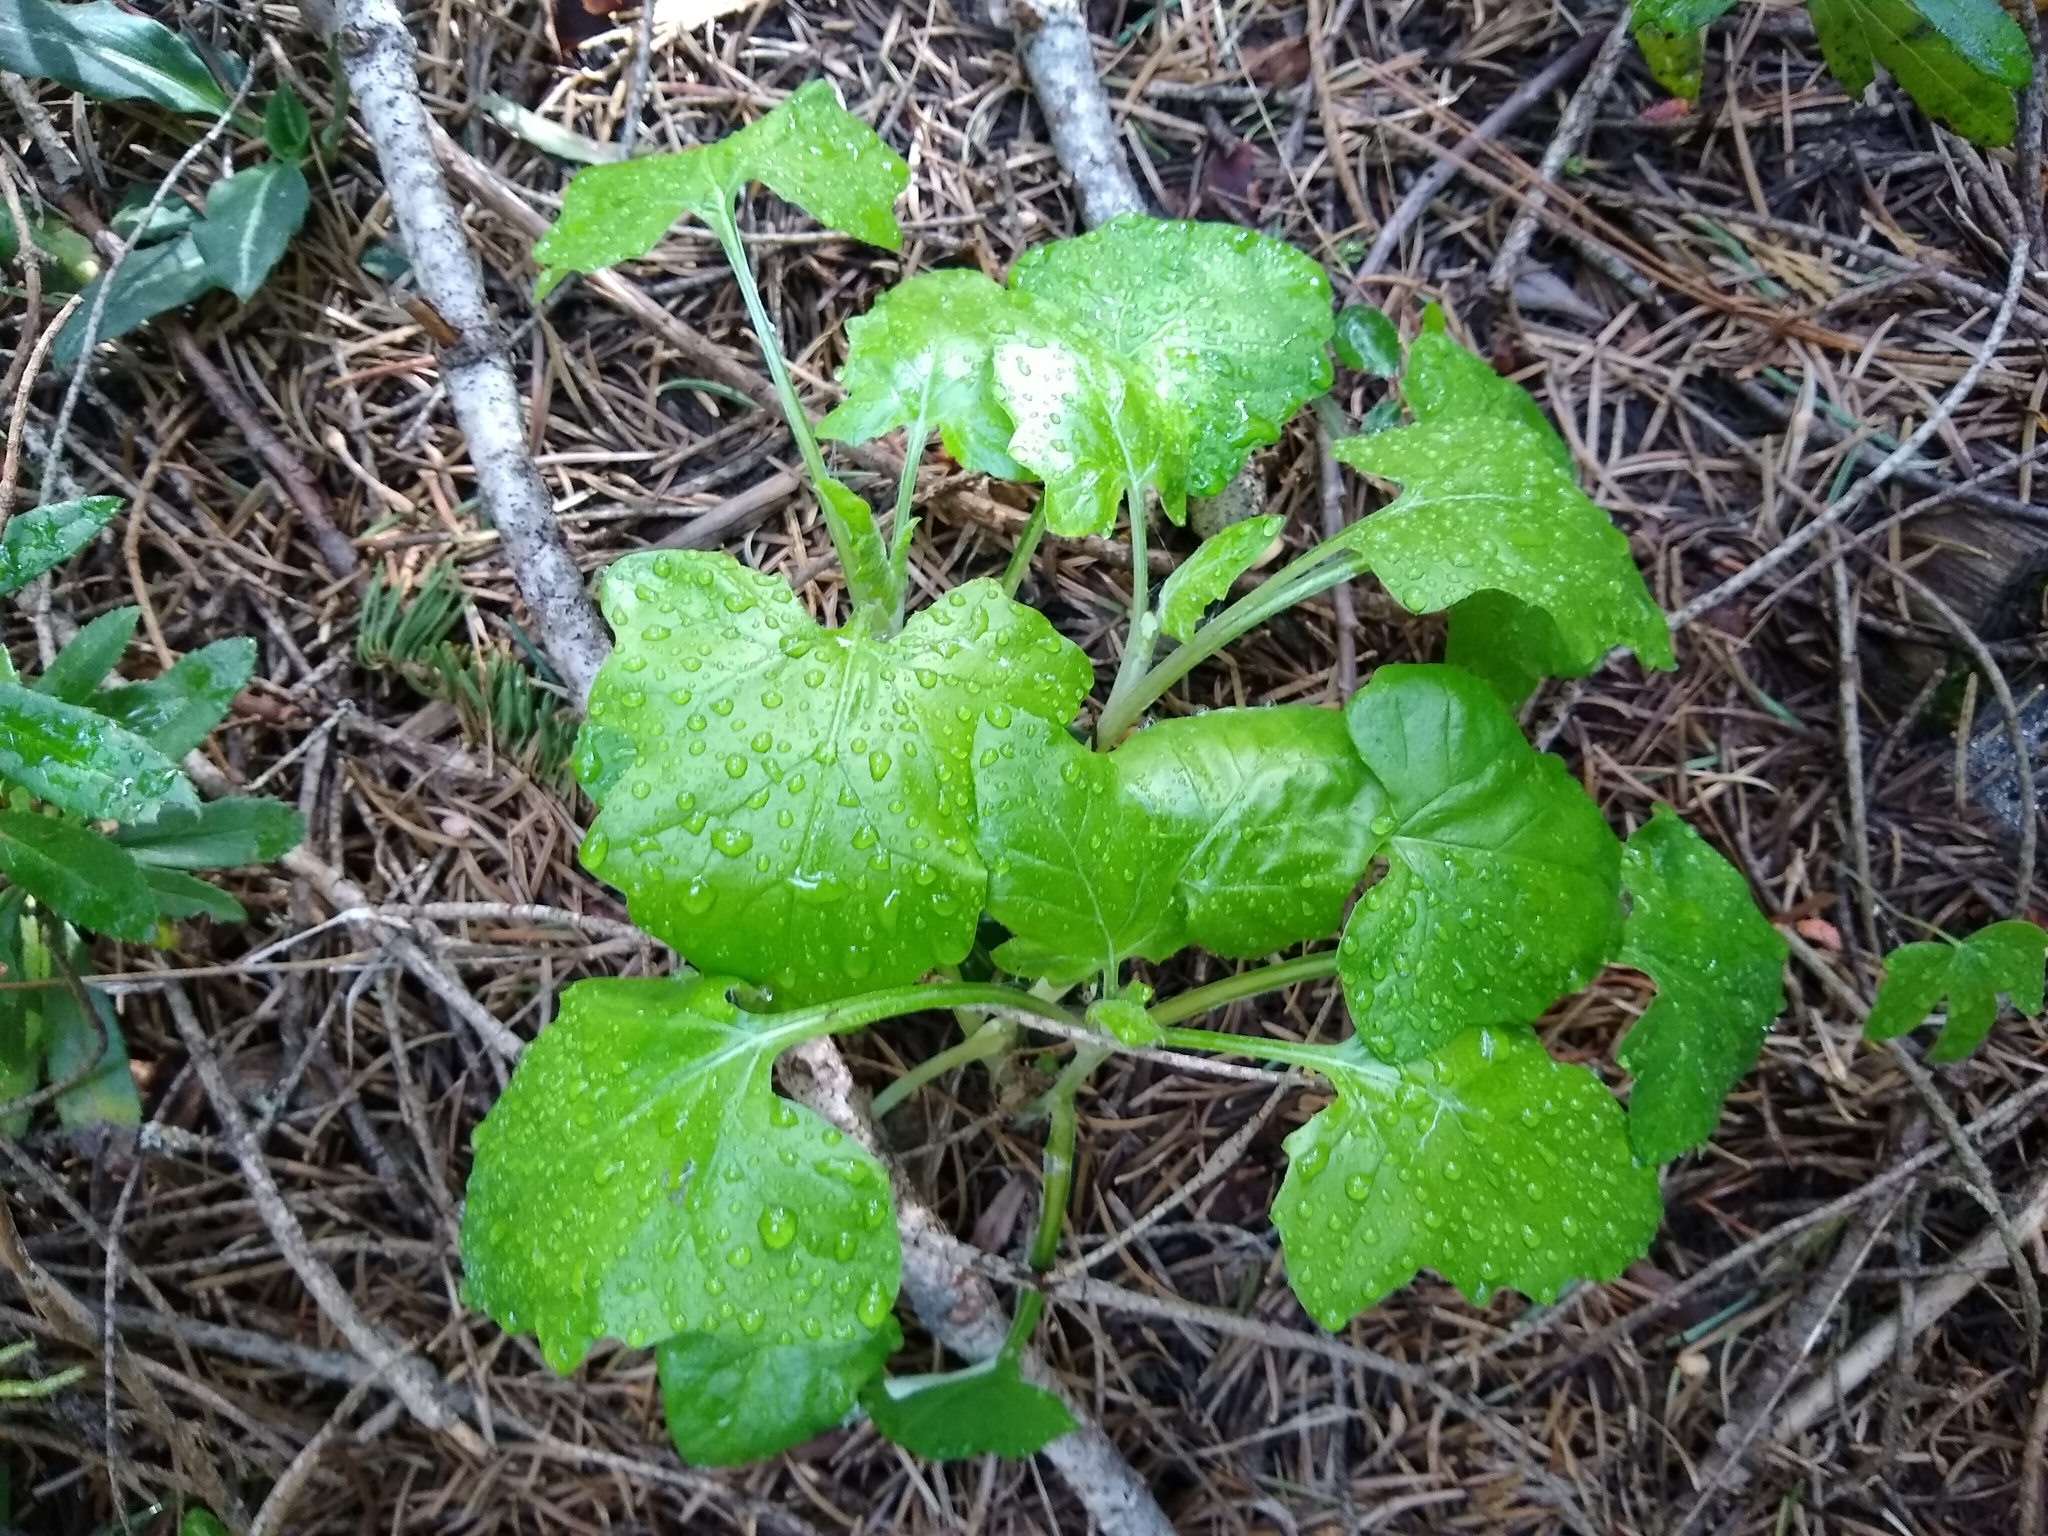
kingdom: Plantae
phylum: Tracheophyta
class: Magnoliopsida
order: Asterales
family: Asteraceae
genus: Adenocaulon
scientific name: Adenocaulon bicolor
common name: Trailplant
